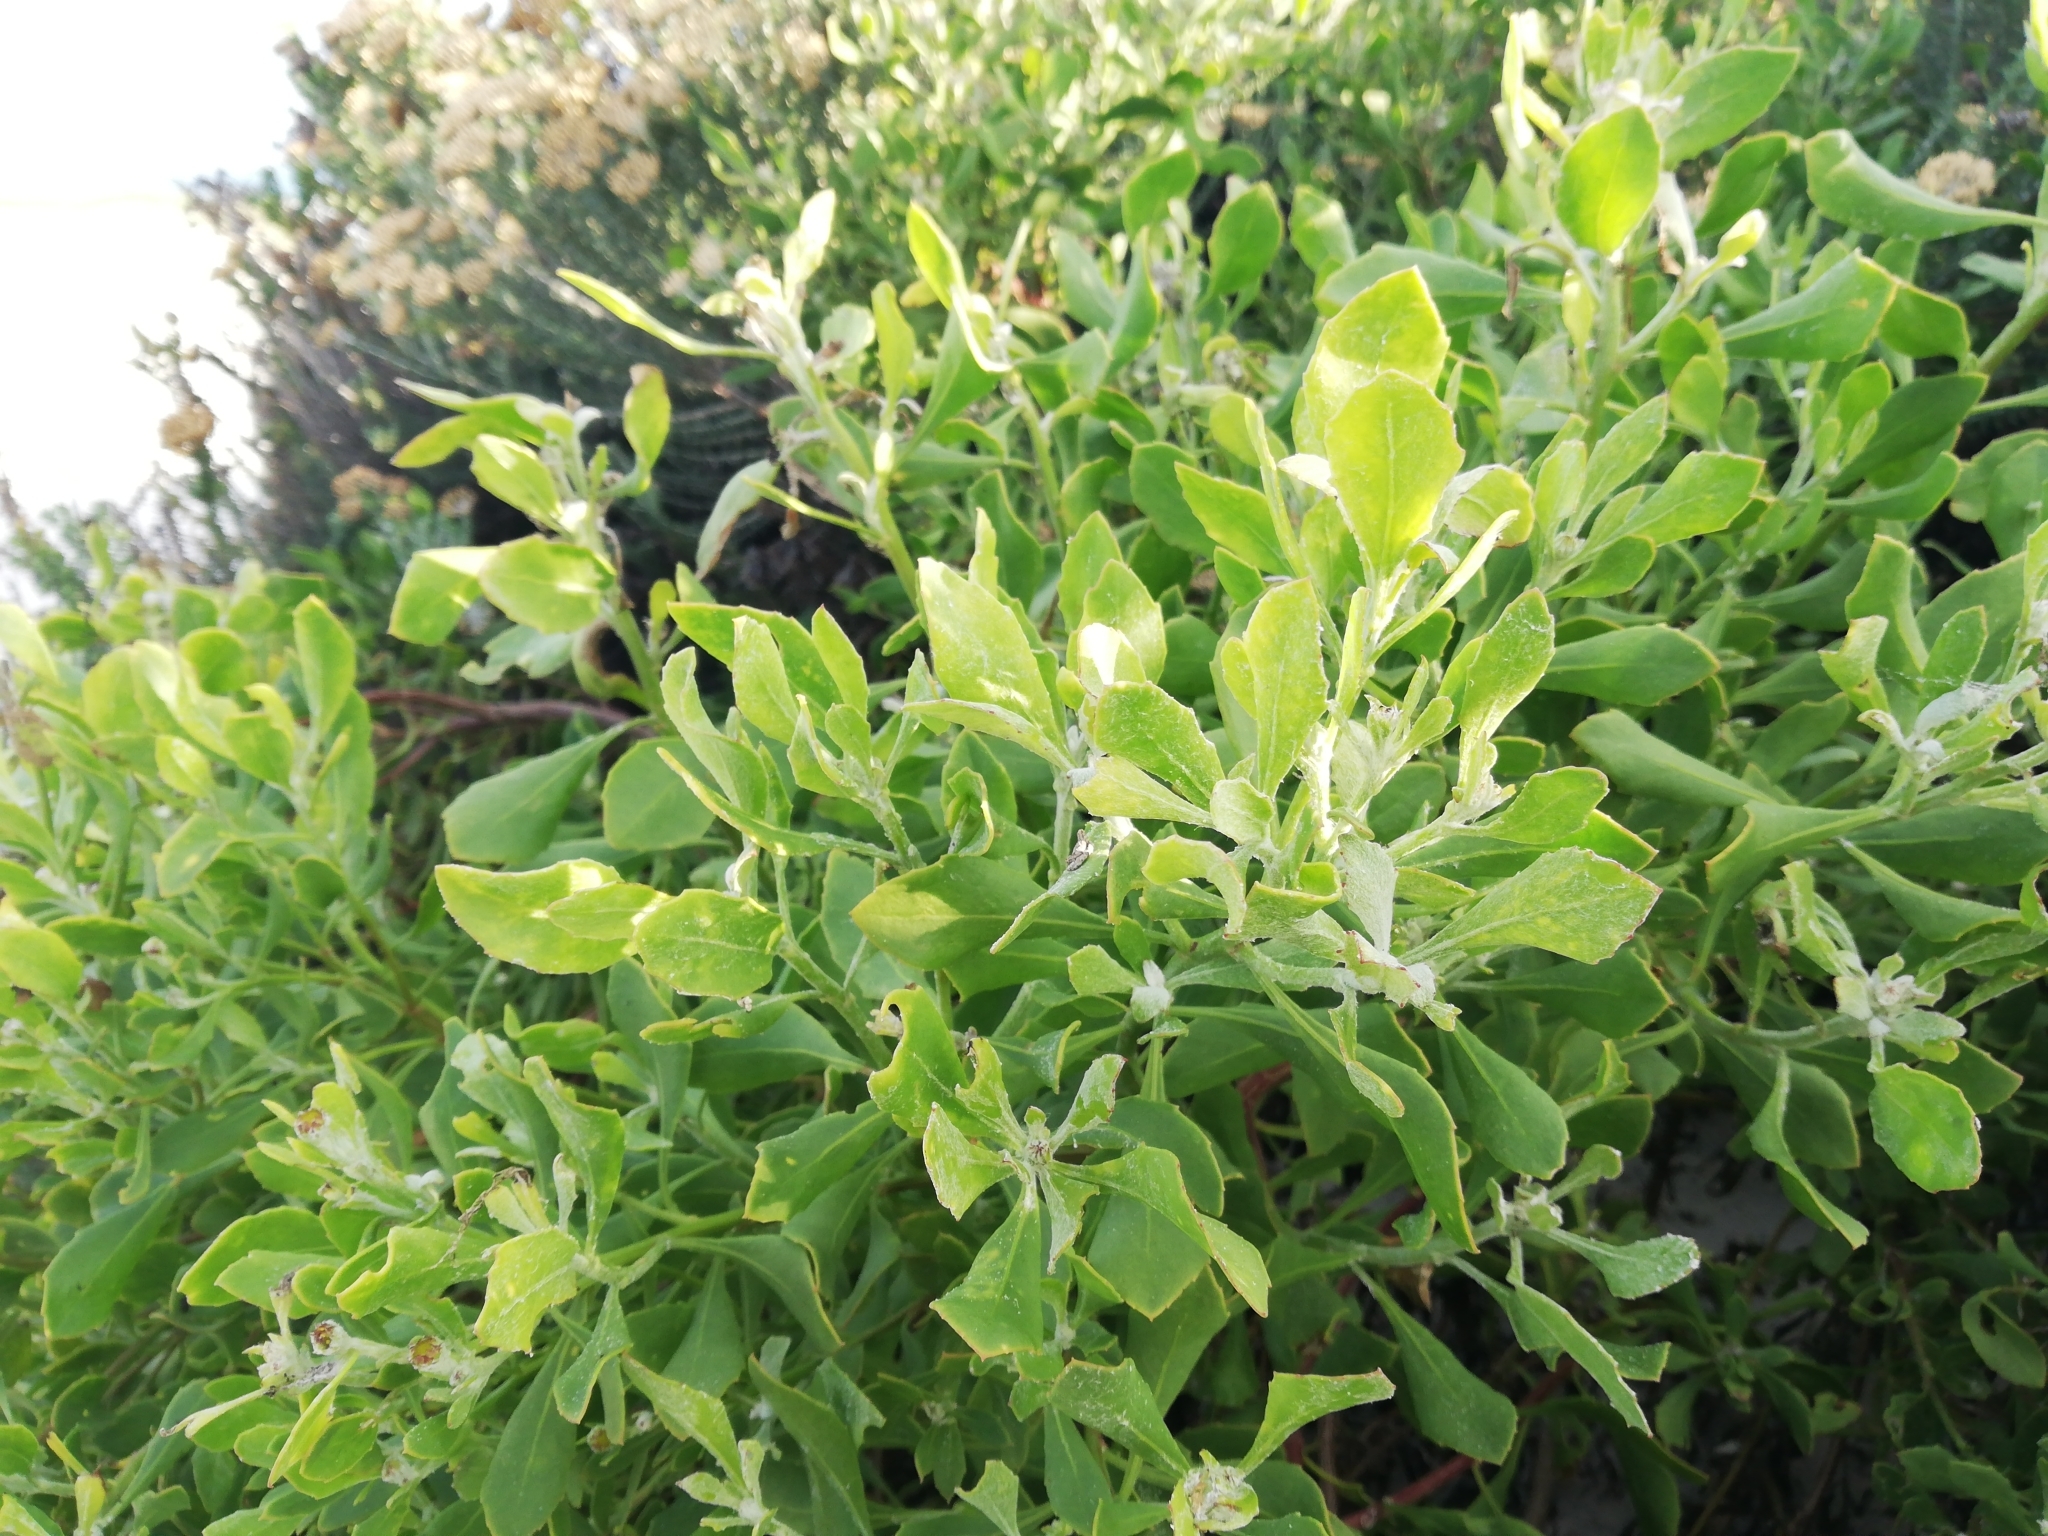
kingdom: Plantae
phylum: Tracheophyta
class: Magnoliopsida
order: Asterales
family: Asteraceae
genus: Osteospermum
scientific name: Osteospermum moniliferum
